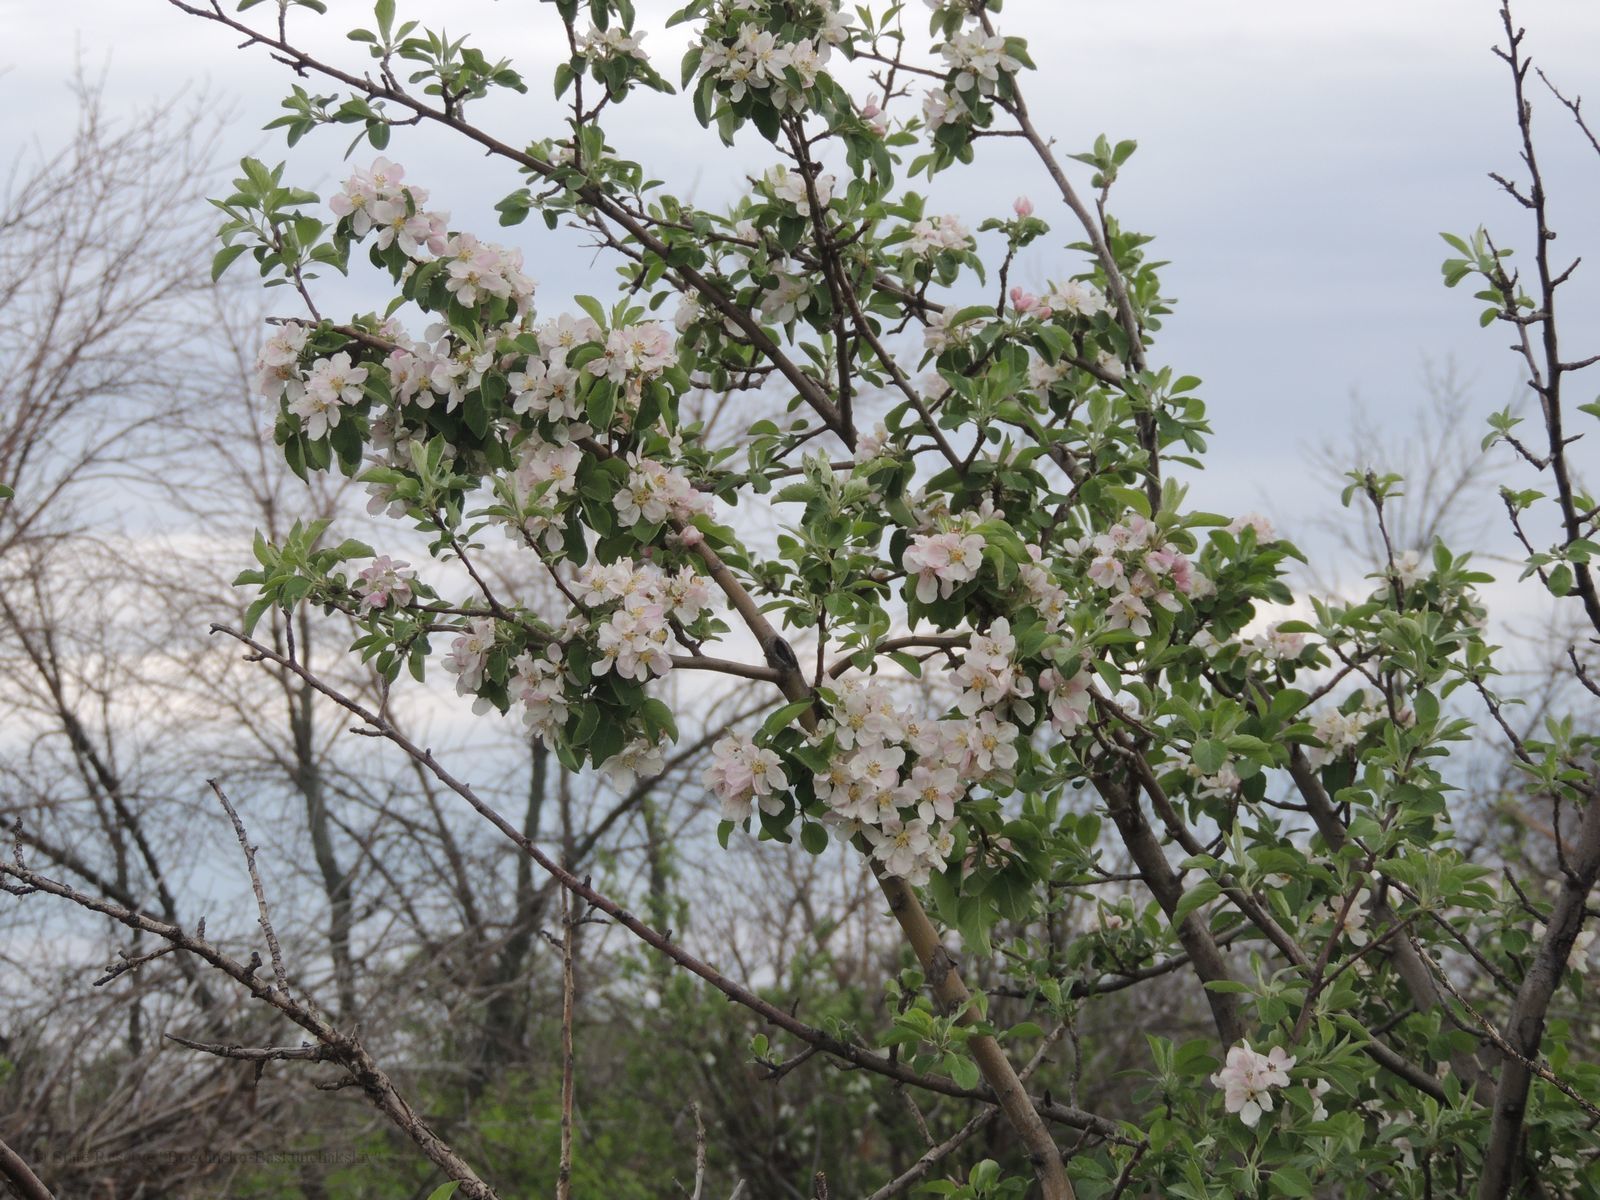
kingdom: Plantae
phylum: Tracheophyta
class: Magnoliopsida
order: Rosales
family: Rosaceae
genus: Malus
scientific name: Malus domestica
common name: Apple
